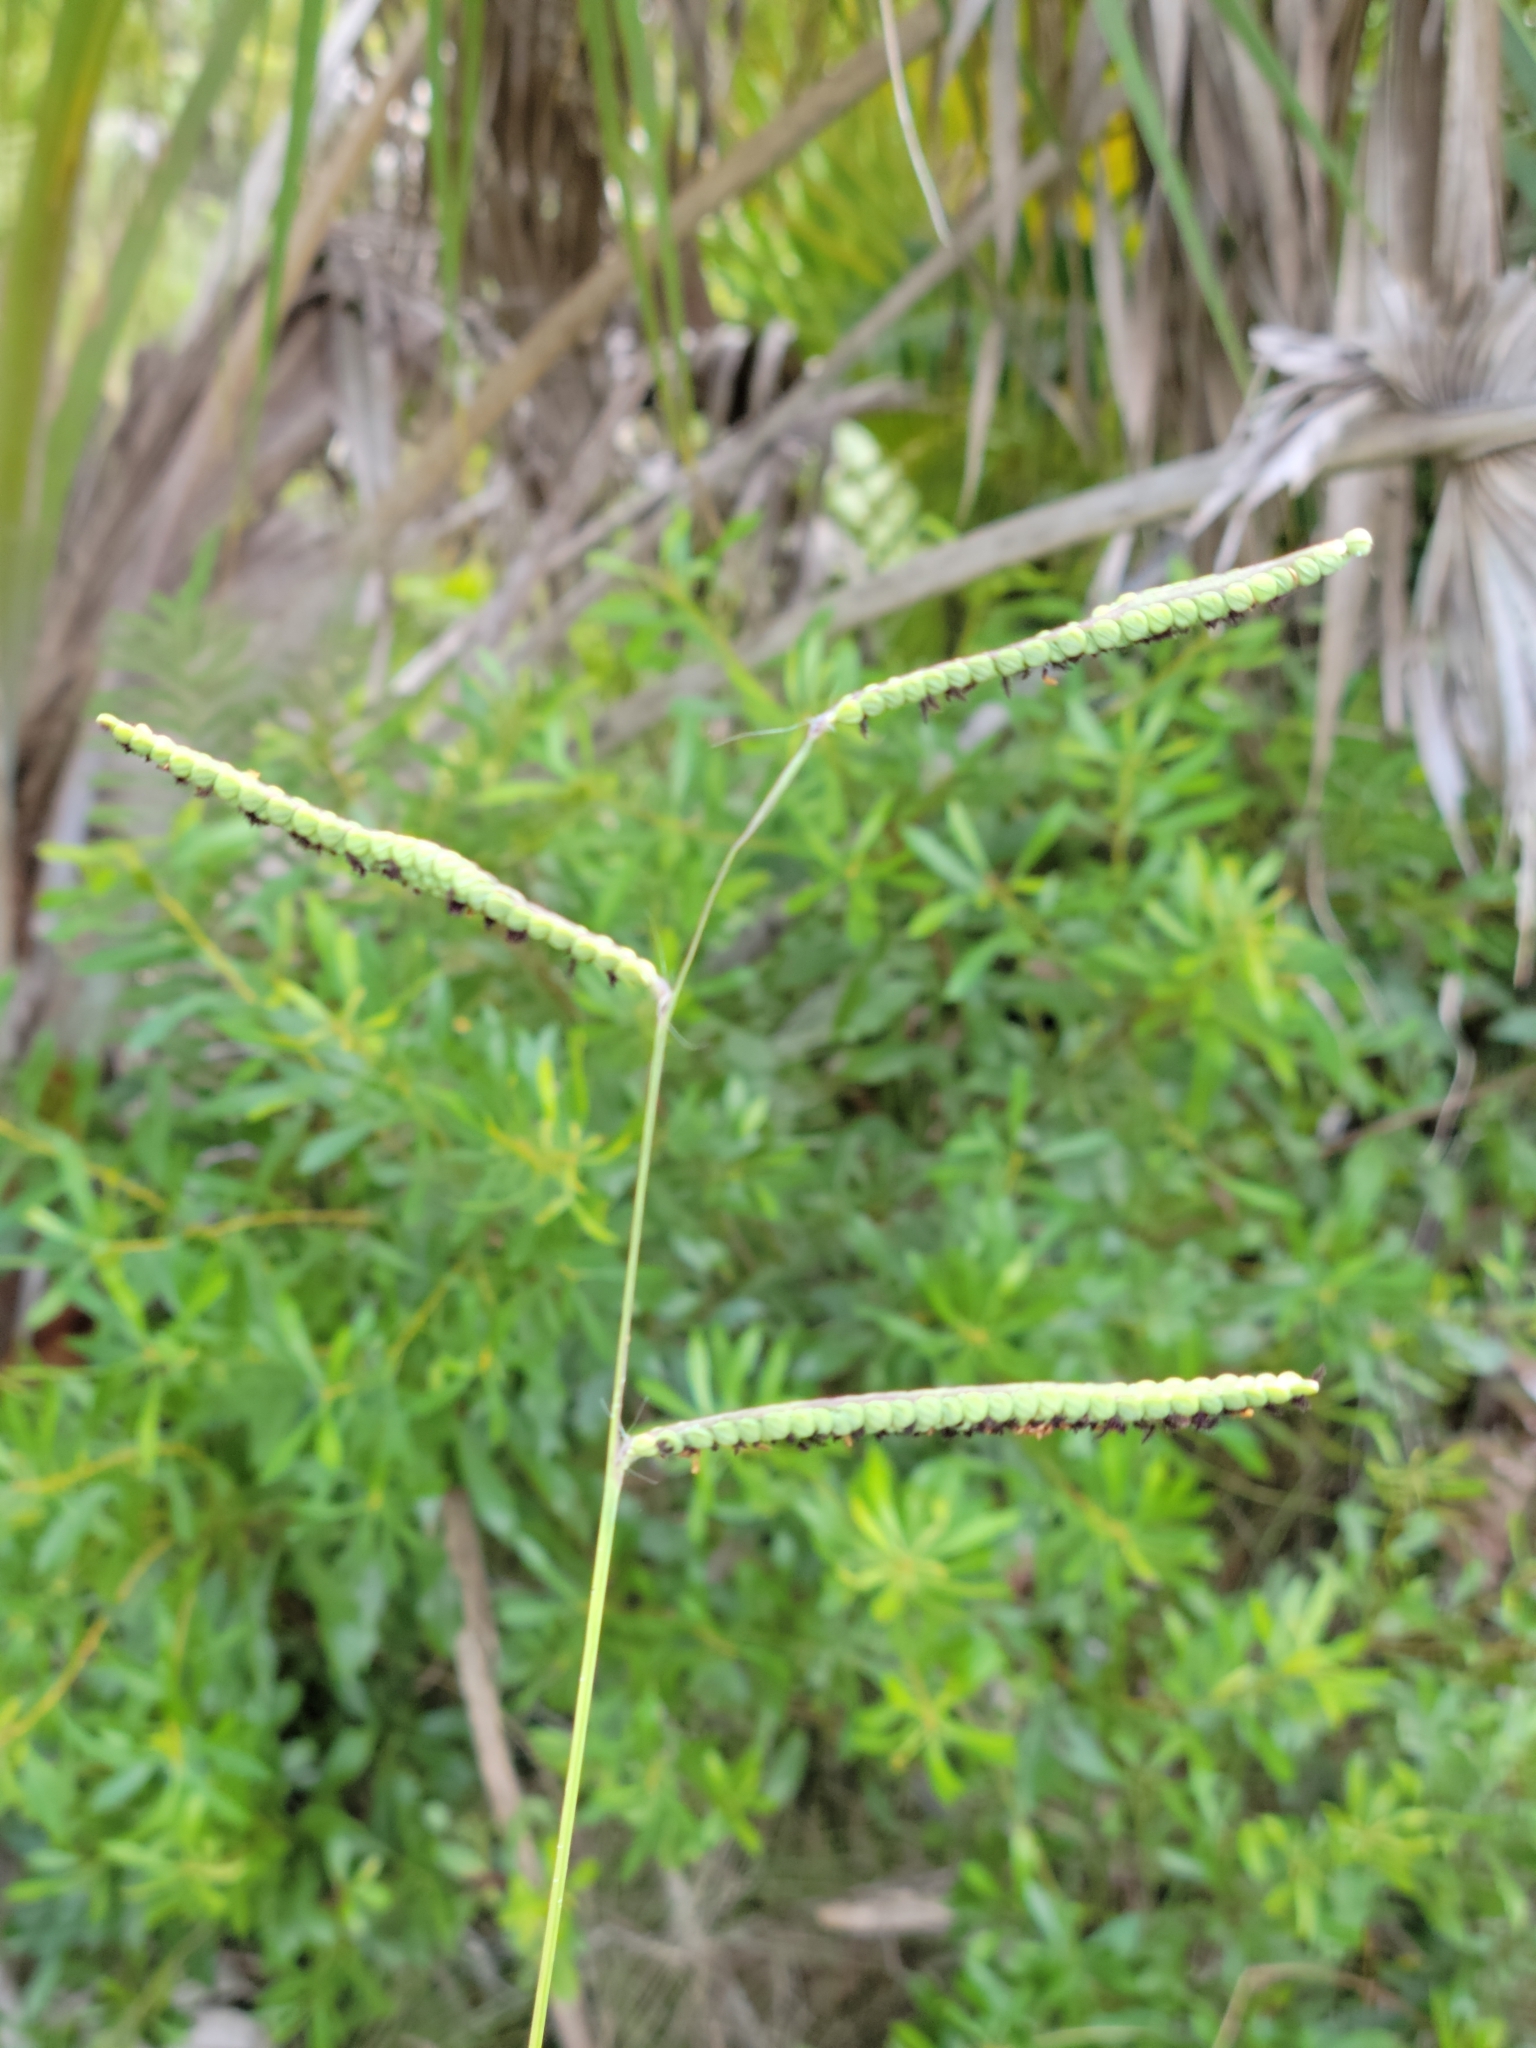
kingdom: Plantae
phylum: Tracheophyta
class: Liliopsida
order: Poales
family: Poaceae
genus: Paspalum
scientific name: Paspalum praecox
